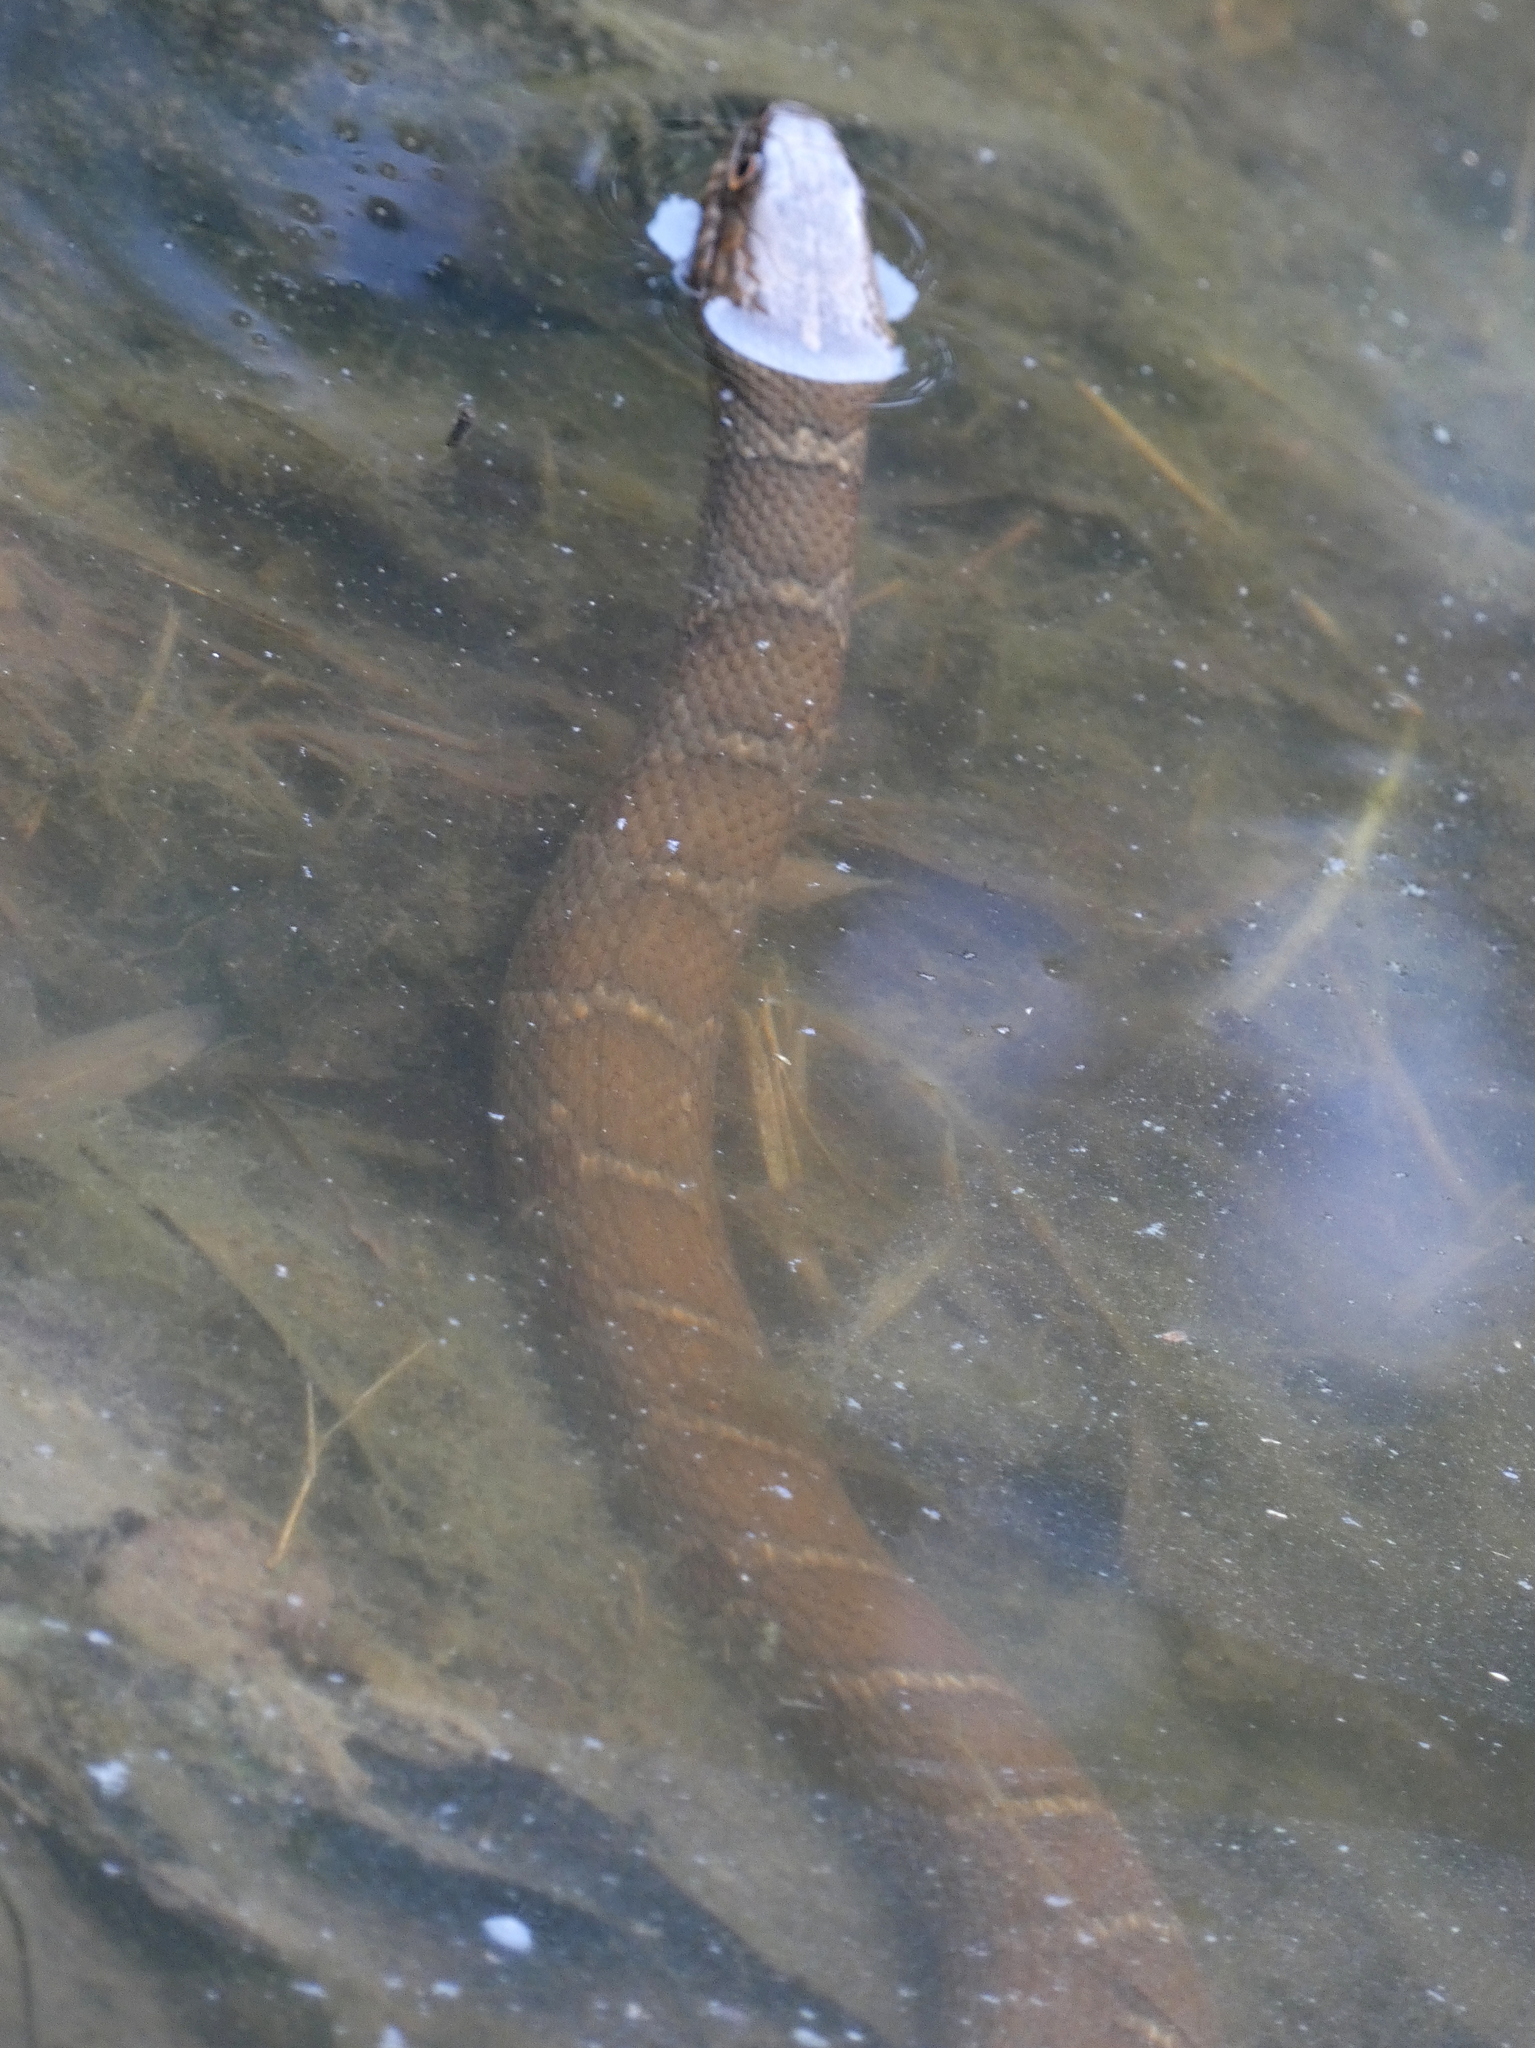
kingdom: Animalia
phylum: Chordata
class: Squamata
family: Colubridae
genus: Nerodia
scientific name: Nerodia sipedon
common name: Northern water snake
